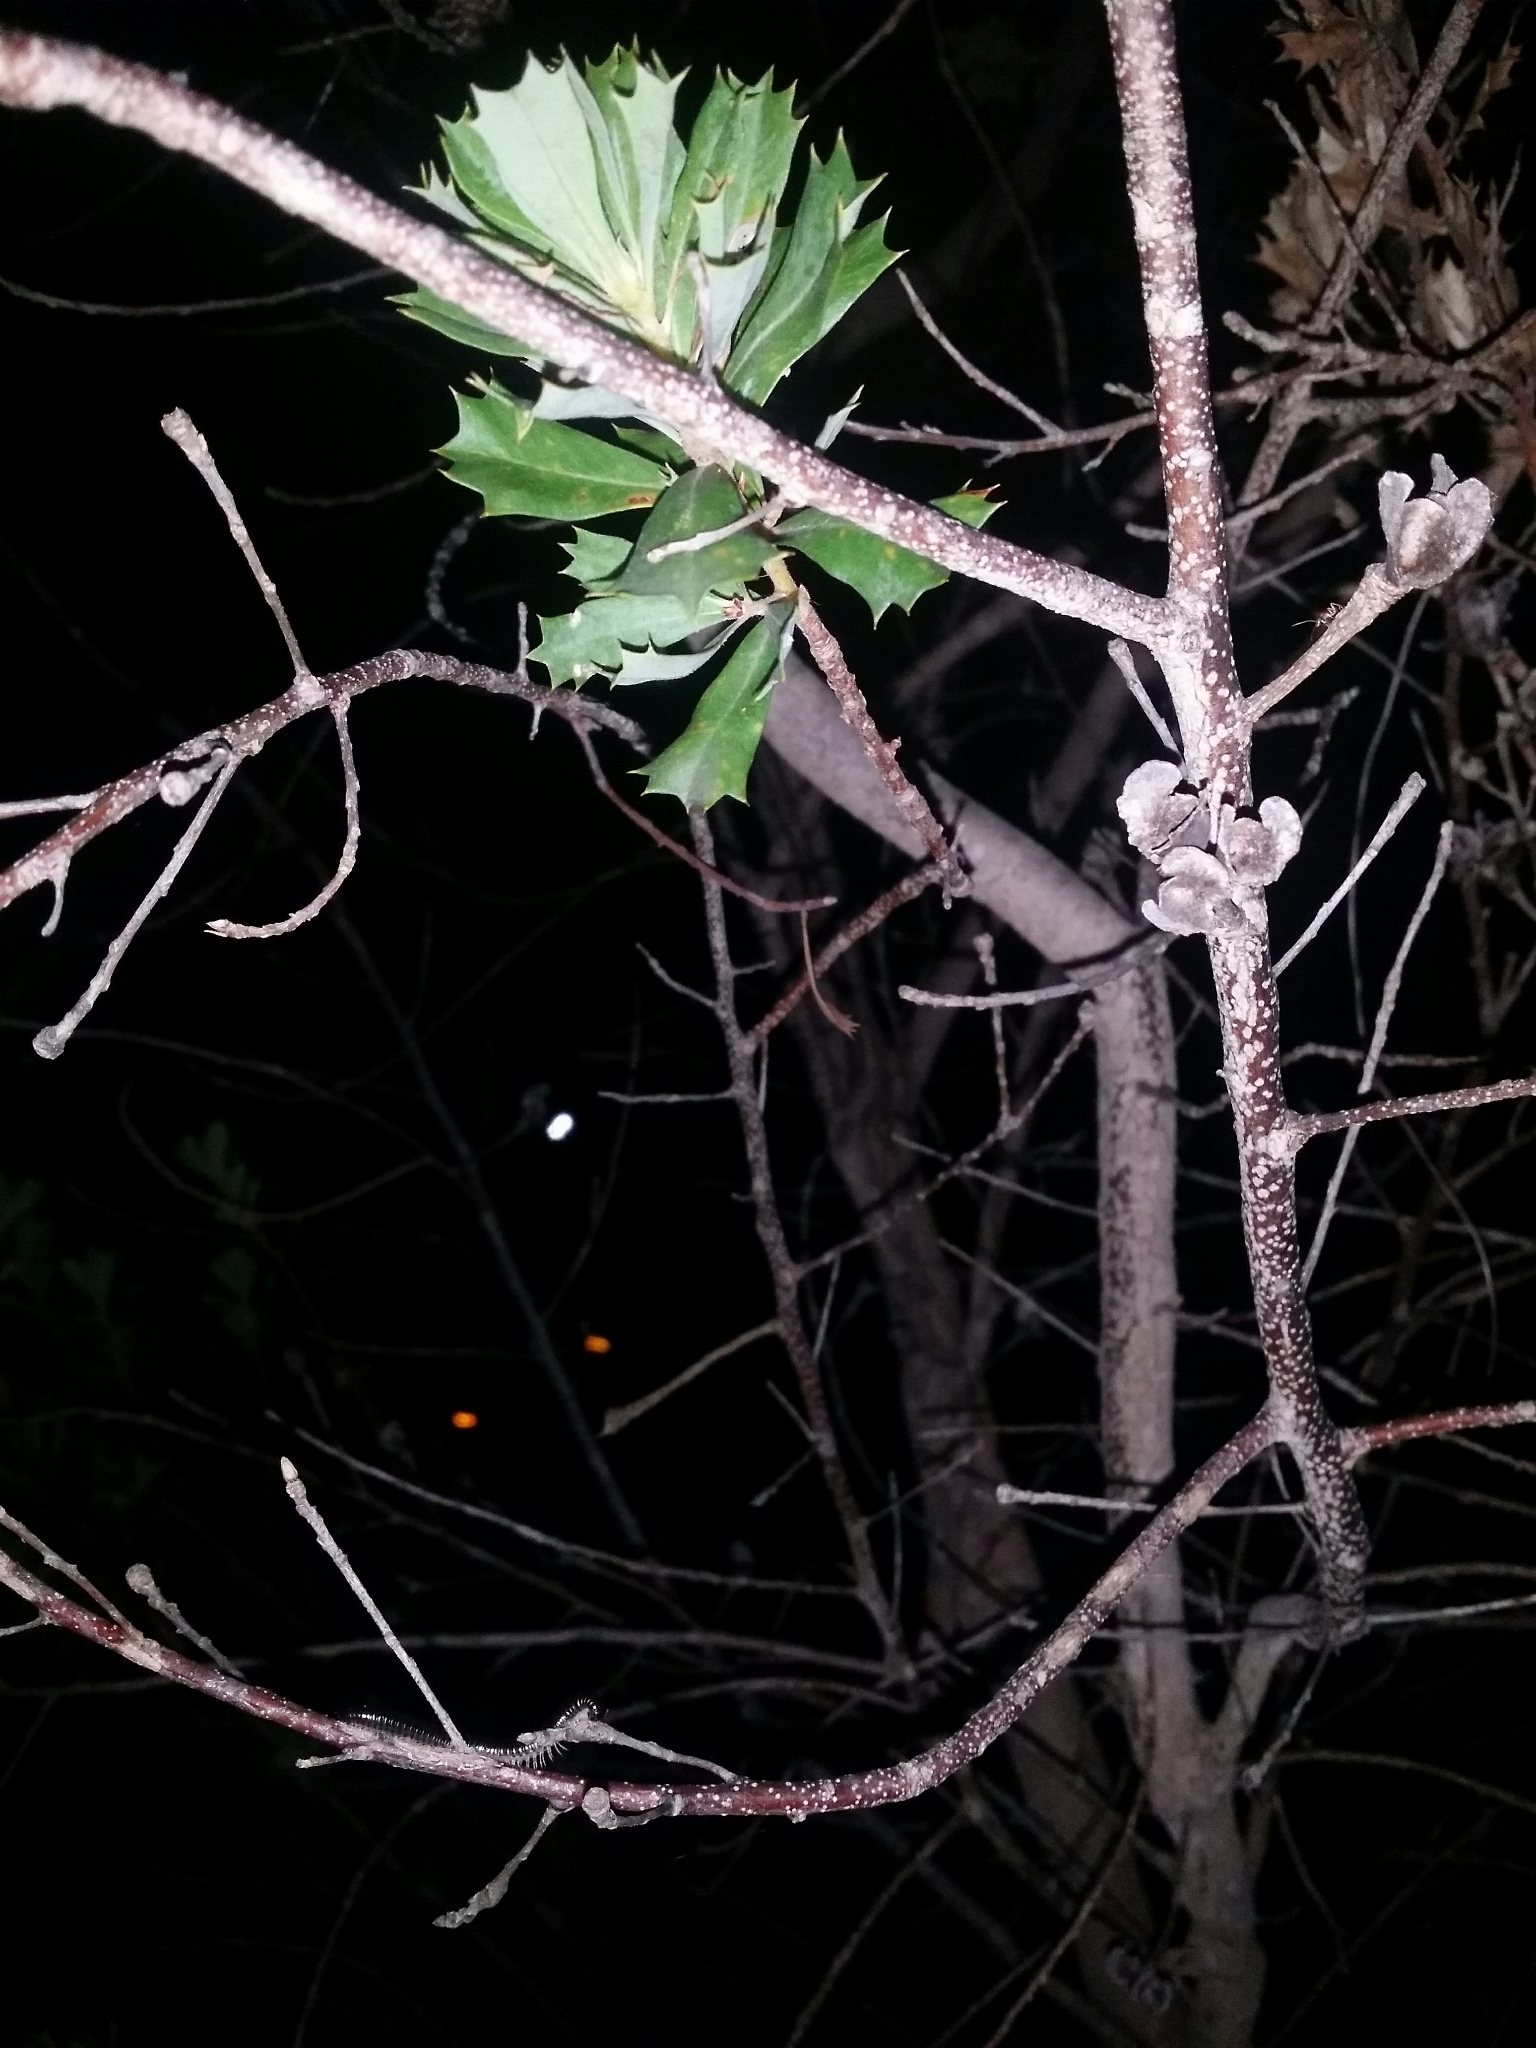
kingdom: Animalia
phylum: Arthropoda
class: Diplopoda
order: Julida
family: Julidae
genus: Ommatoiulus
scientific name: Ommatoiulus moreleti
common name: Portuguese millipede
